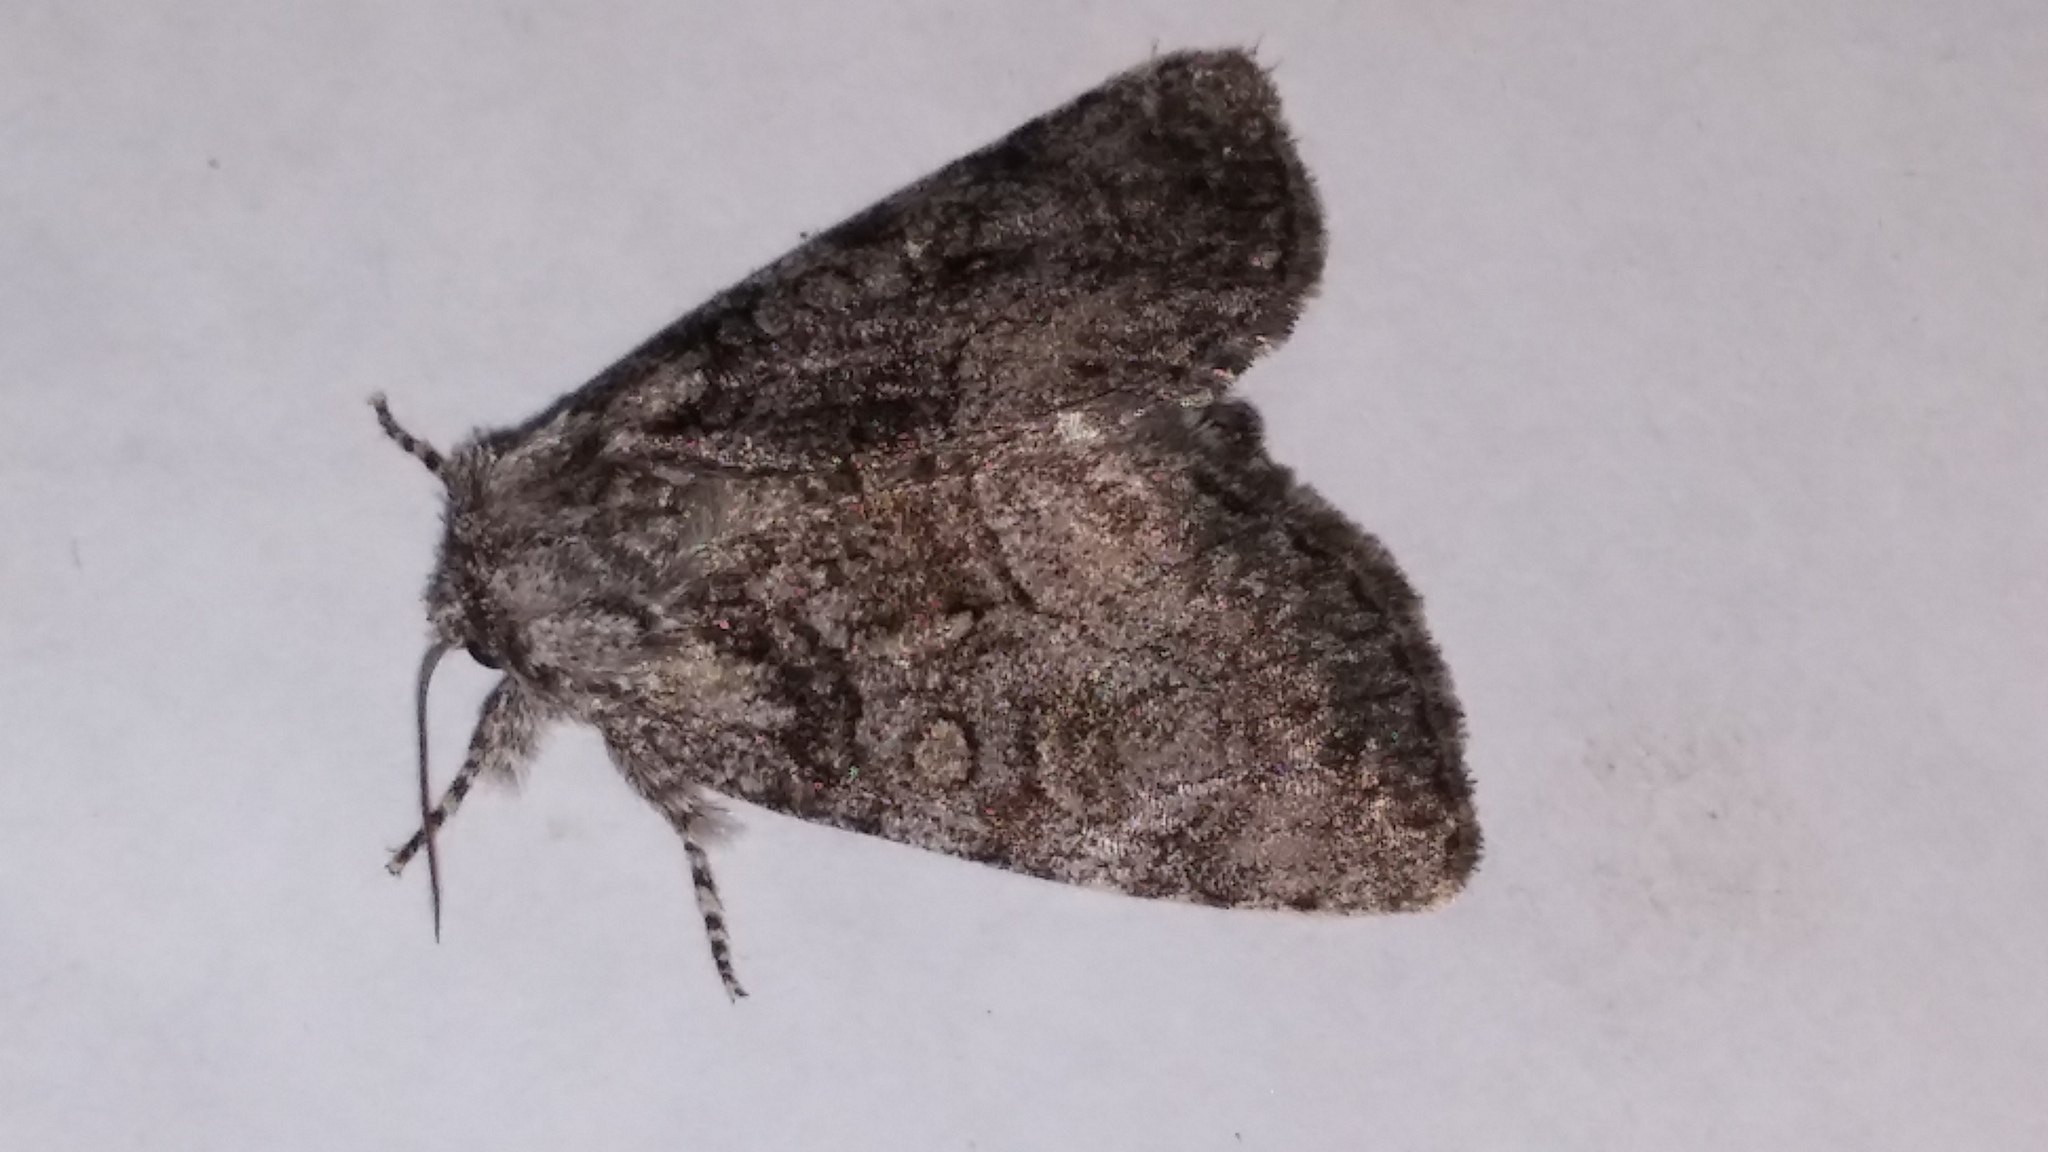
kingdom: Animalia
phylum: Arthropoda
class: Insecta
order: Lepidoptera
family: Noctuidae
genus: Raphia
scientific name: Raphia frater
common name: Brother
